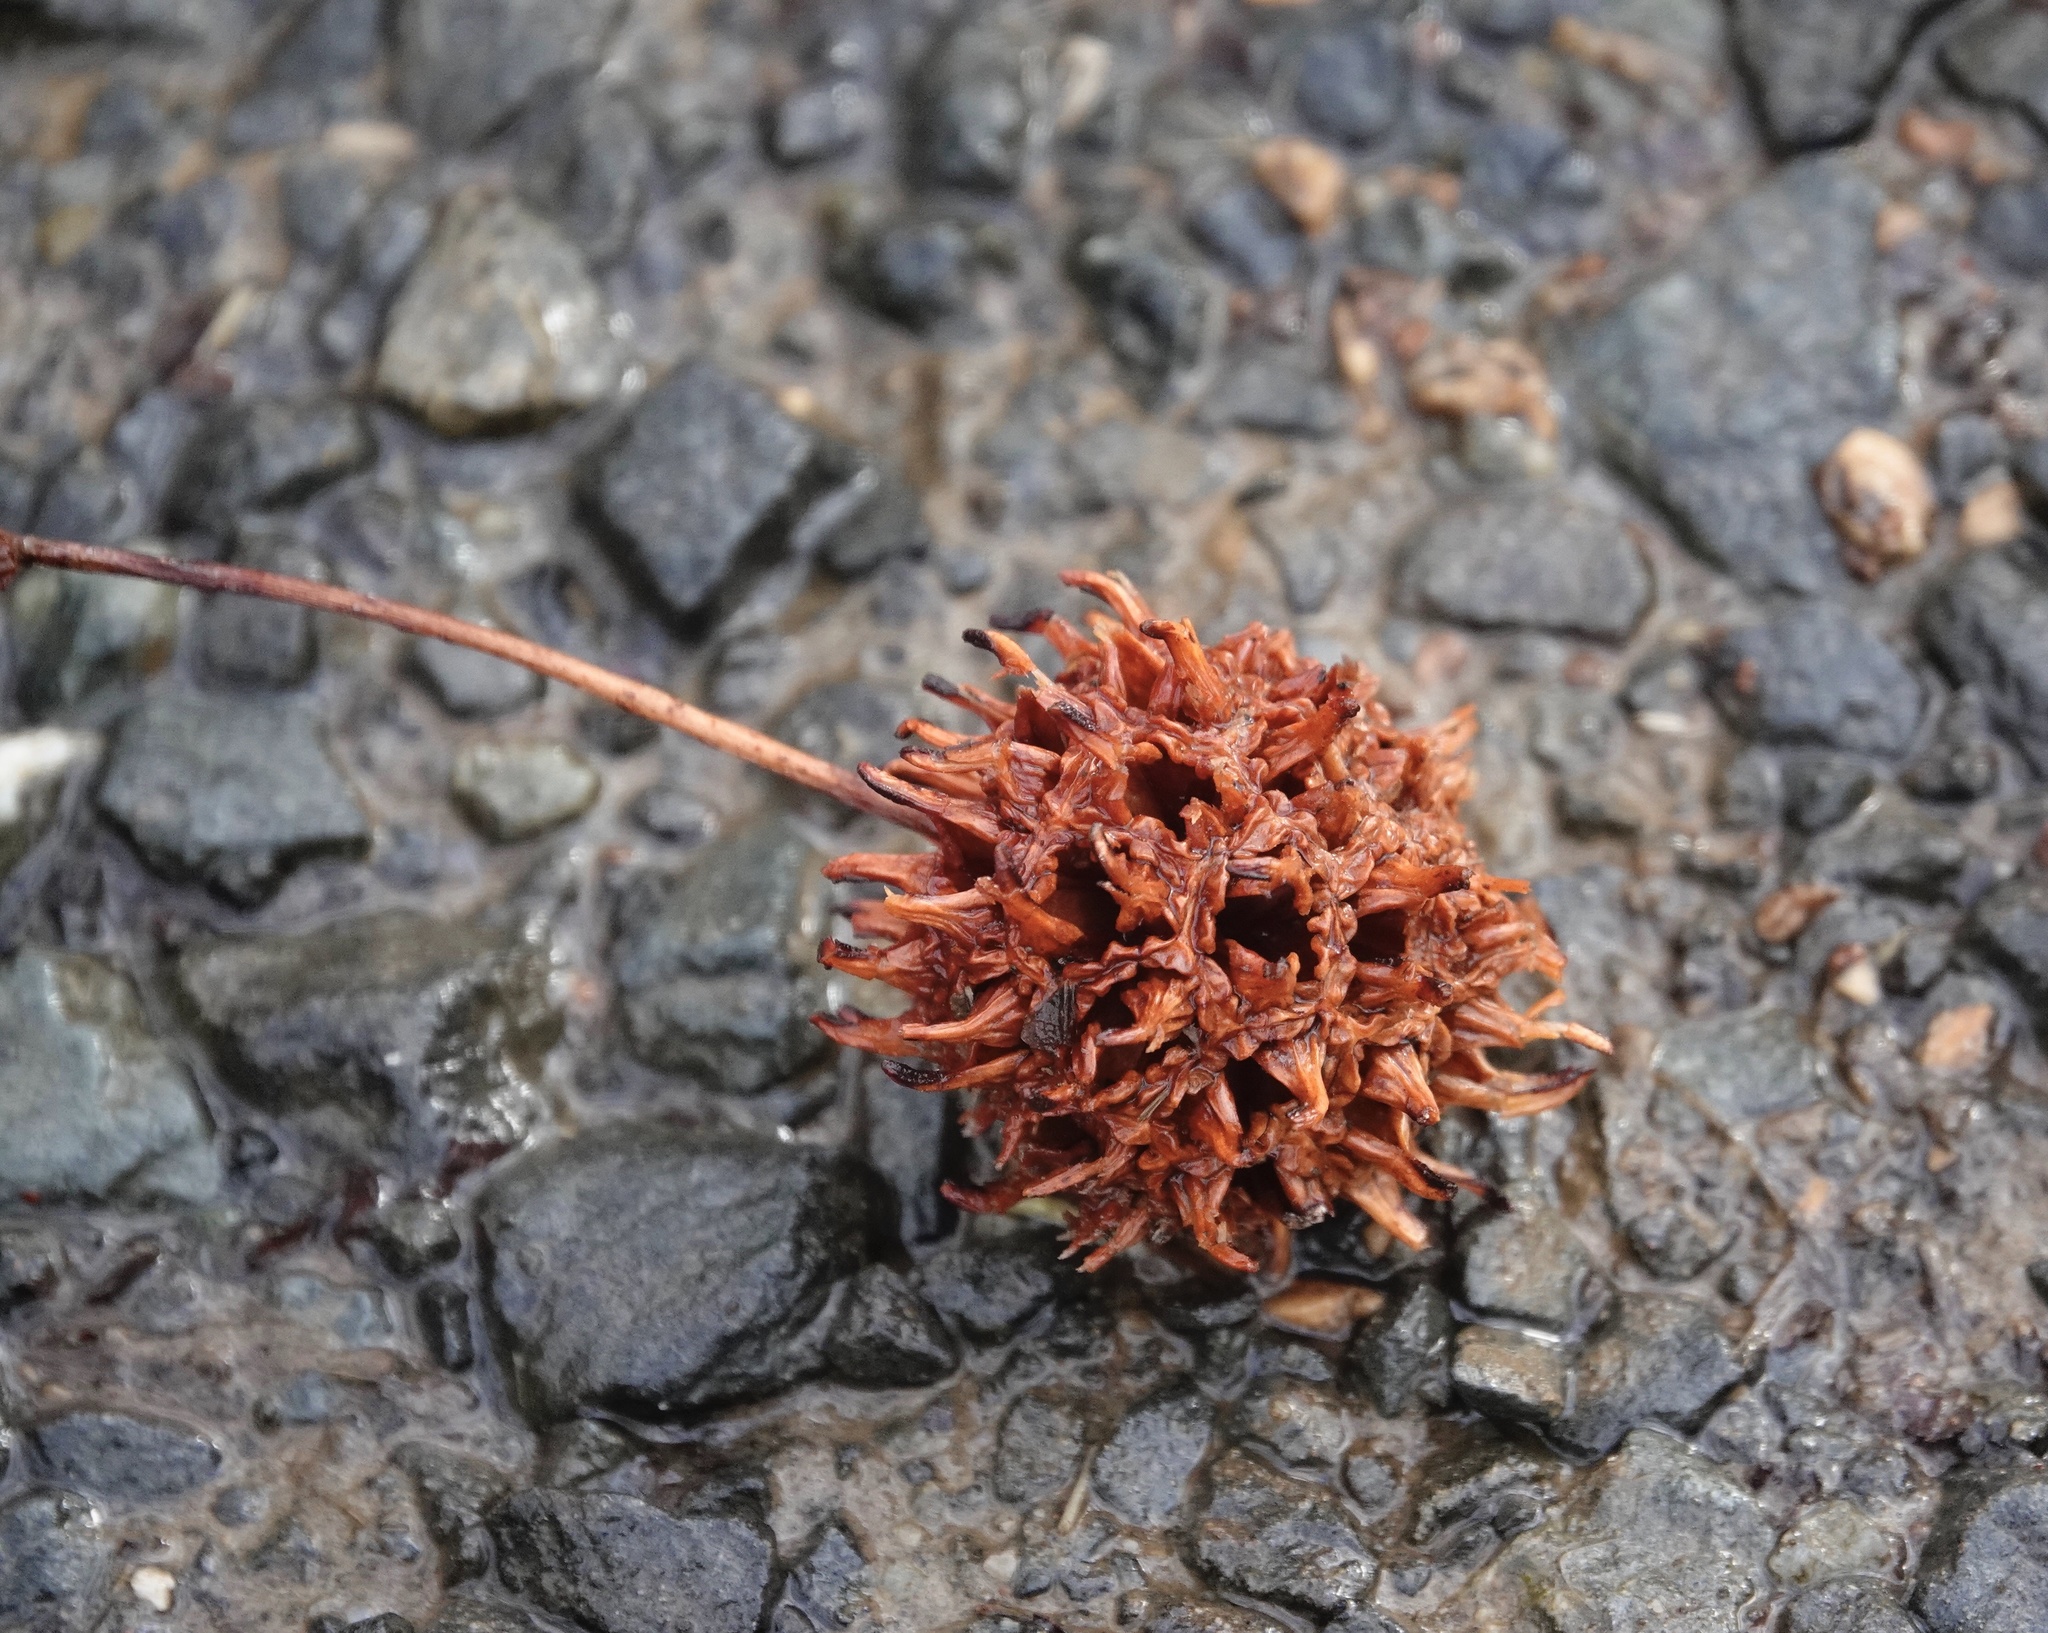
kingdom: Plantae
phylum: Tracheophyta
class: Magnoliopsida
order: Saxifragales
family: Altingiaceae
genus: Liquidambar
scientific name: Liquidambar styraciflua
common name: Sweet gum
